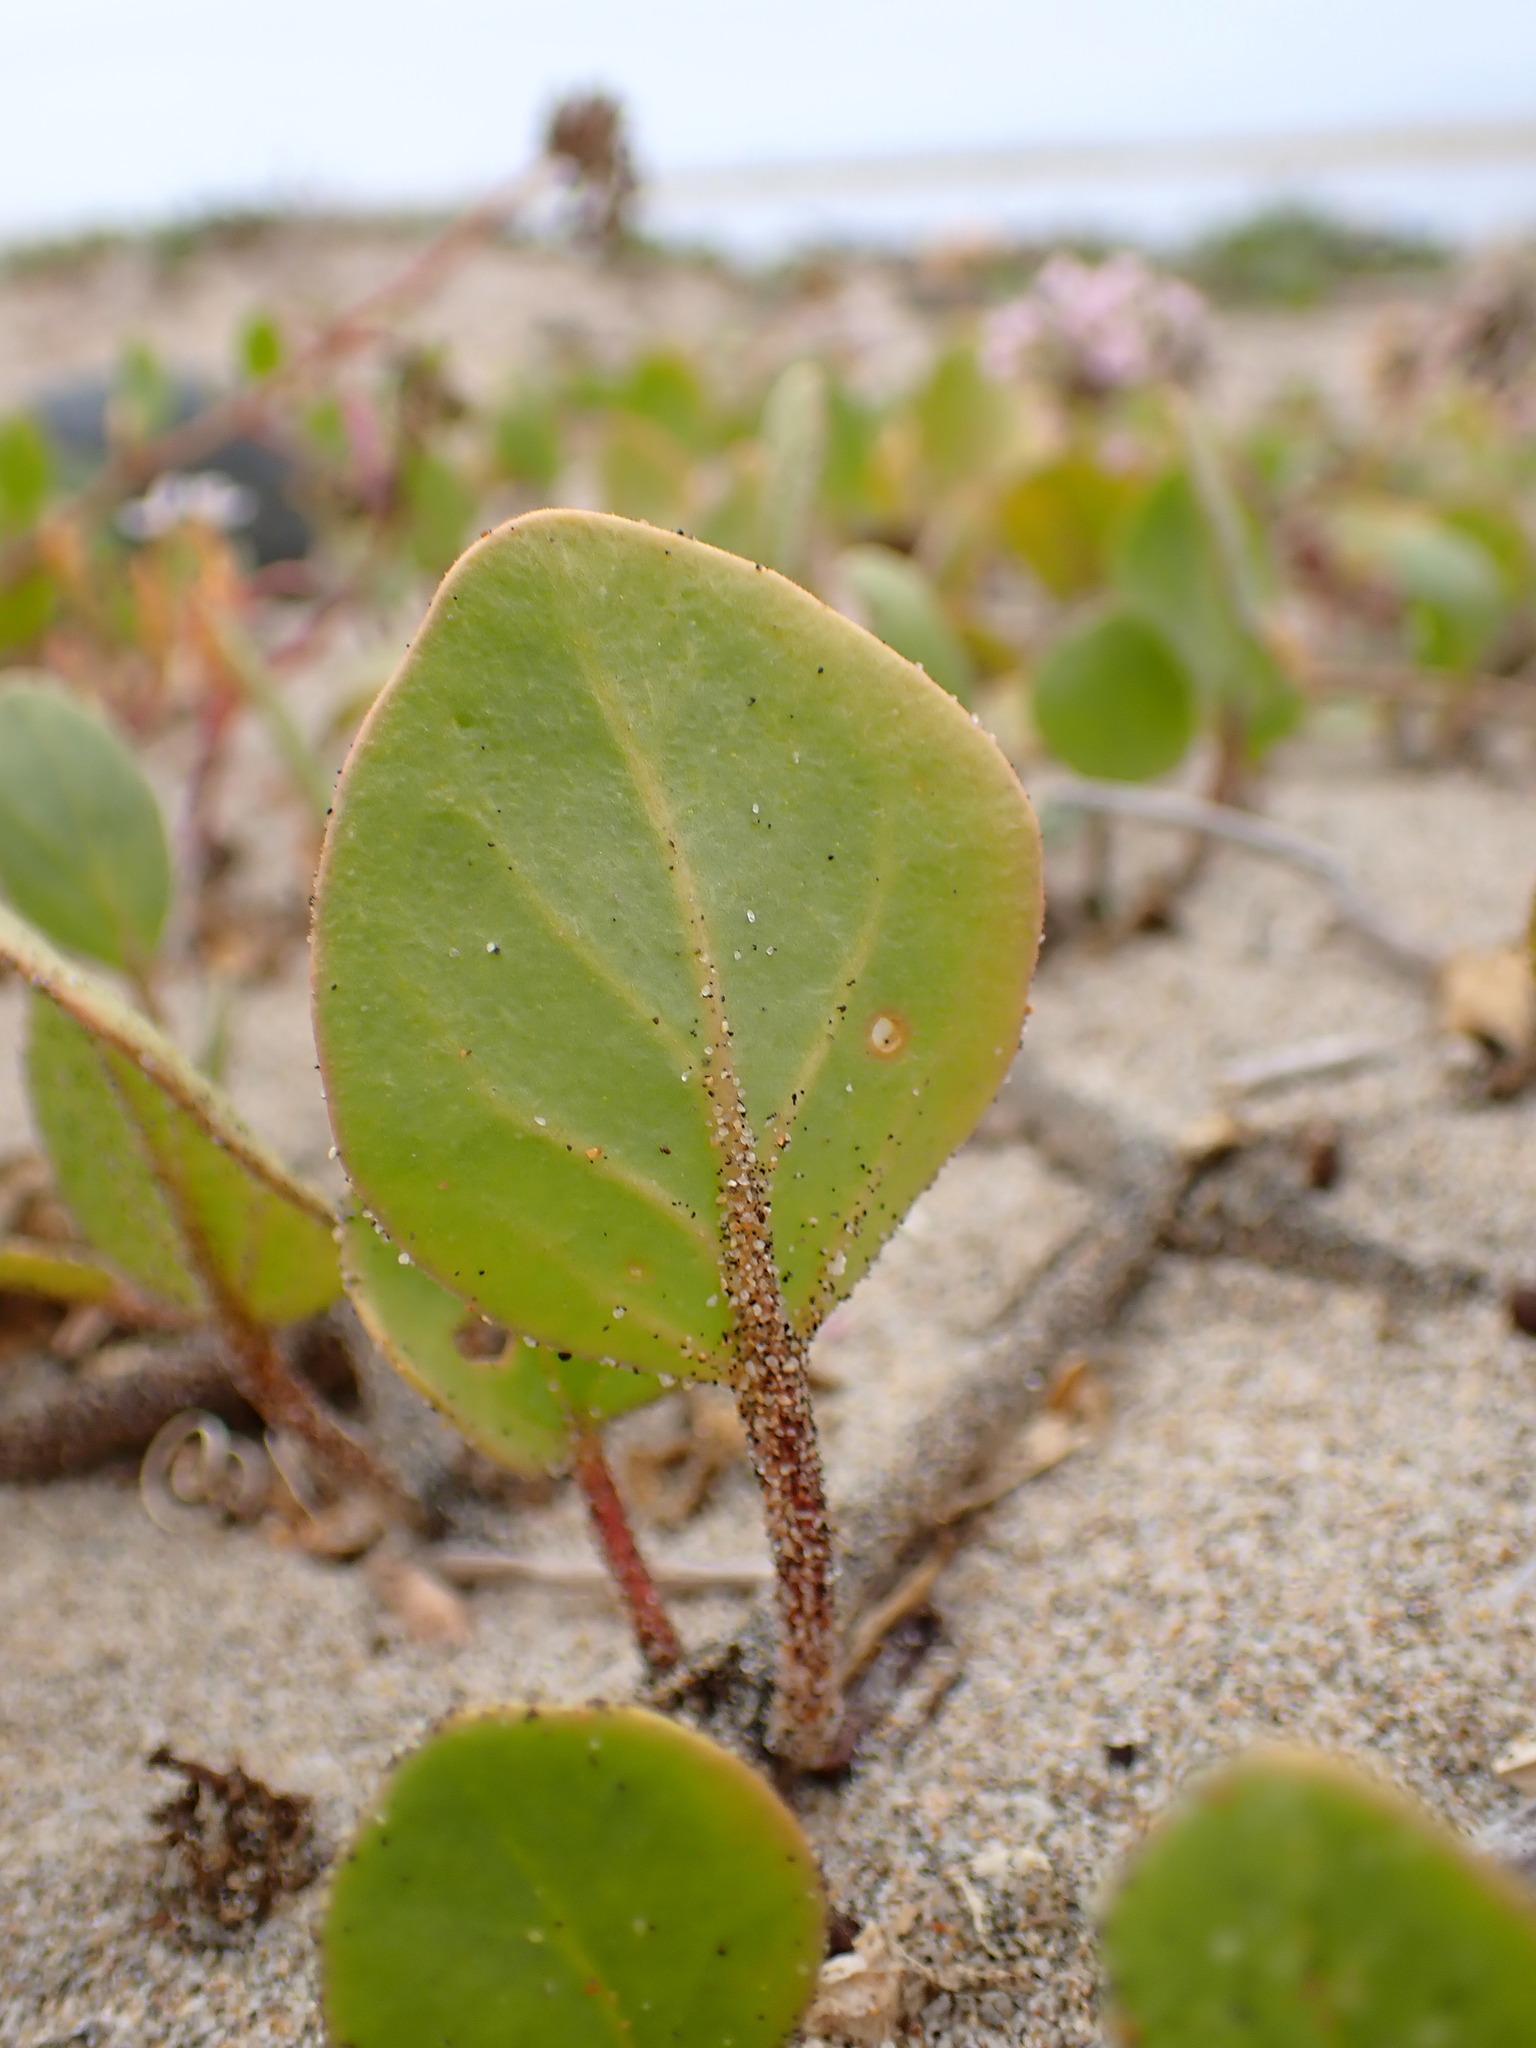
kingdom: Plantae
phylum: Tracheophyta
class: Magnoliopsida
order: Caryophyllales
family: Nyctaginaceae
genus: Abronia
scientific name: Abronia umbellata
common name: Sand-verbena
